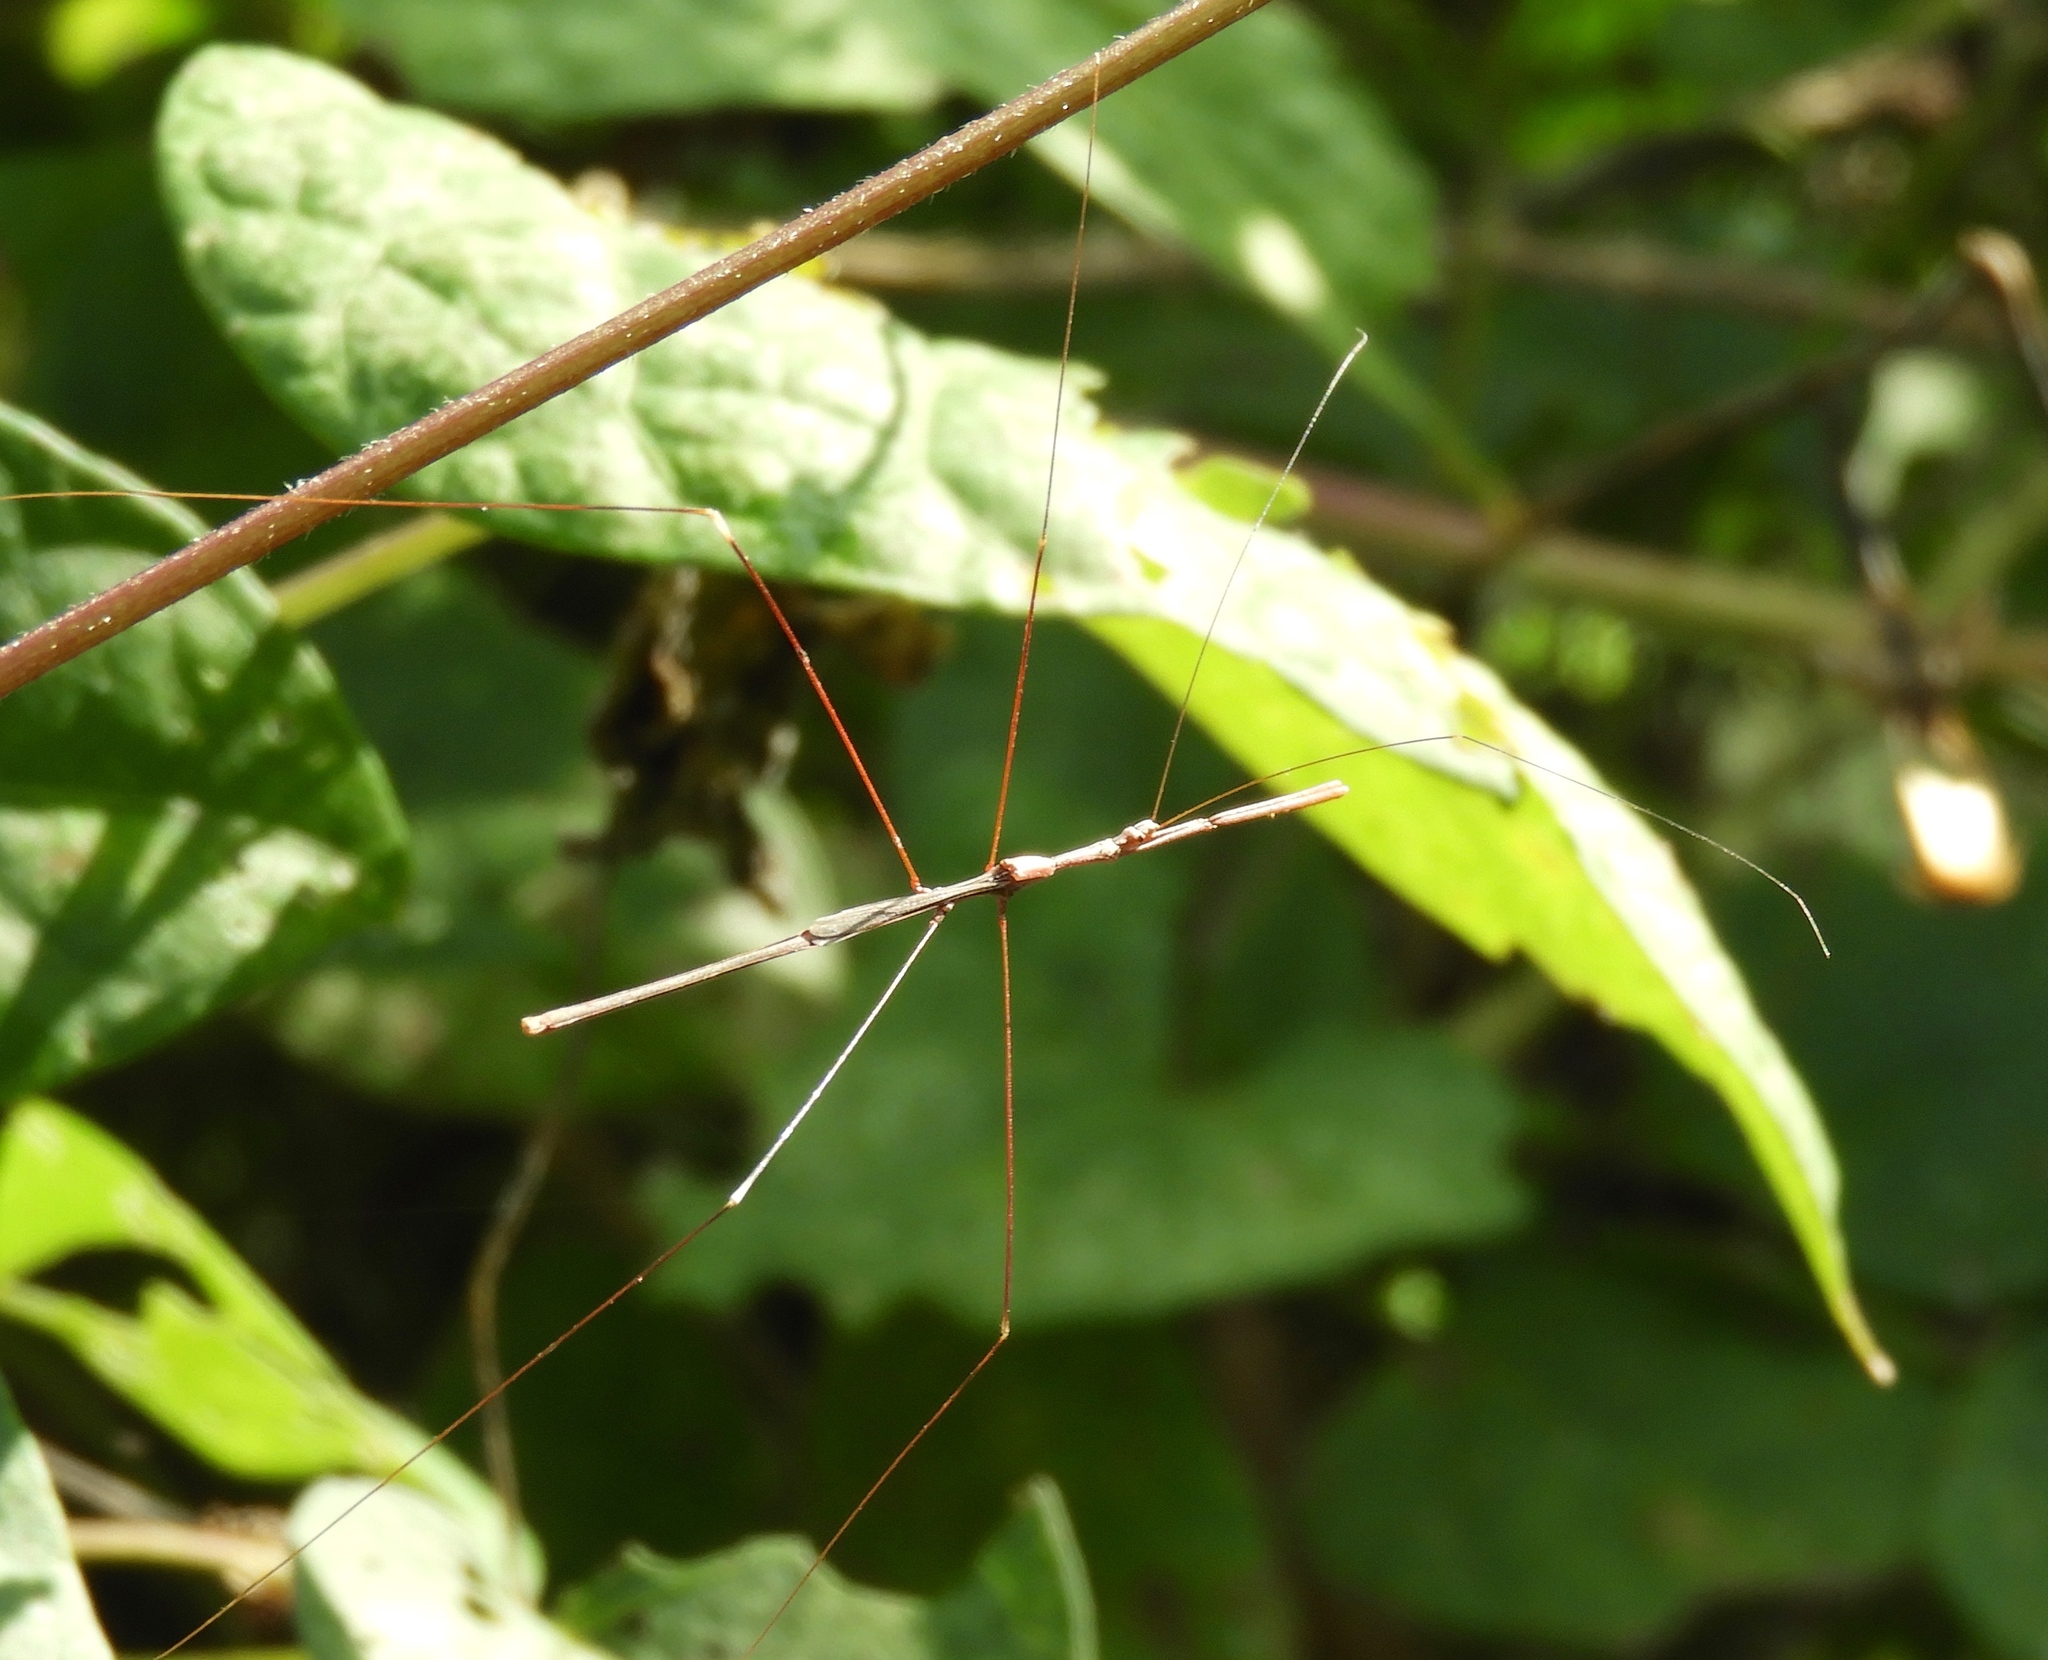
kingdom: Animalia
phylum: Arthropoda
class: Insecta
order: Hemiptera
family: Reduviidae
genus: Emesaya
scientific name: Emesaya brevipennis
